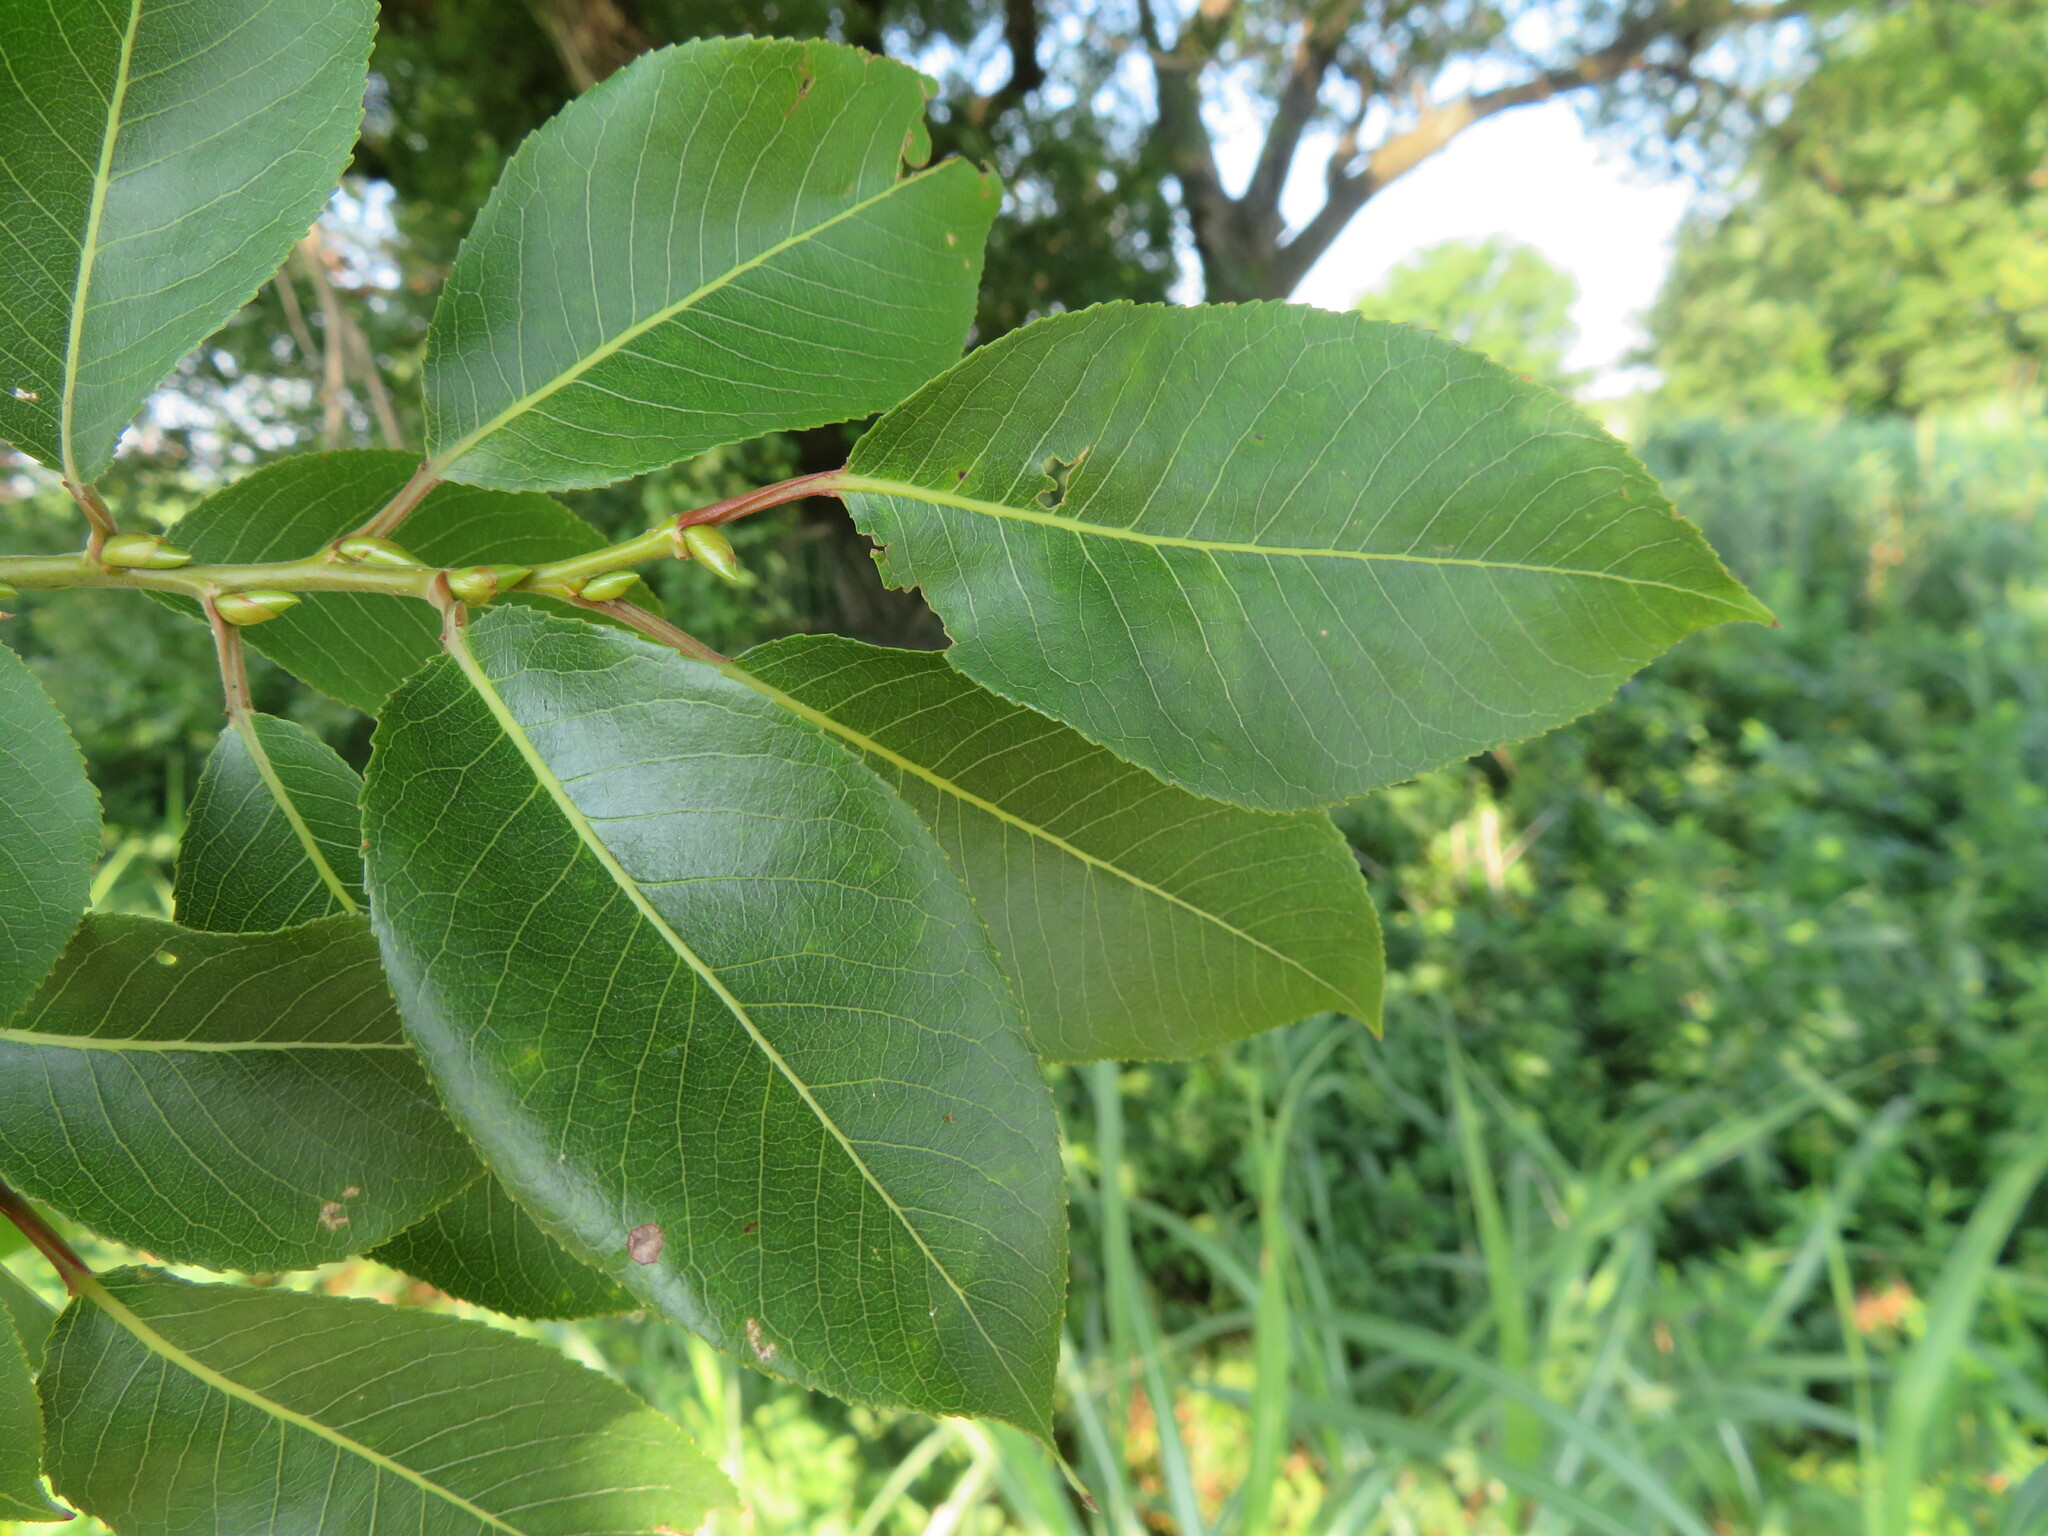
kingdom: Plantae
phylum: Tracheophyta
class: Magnoliopsida
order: Malpighiales
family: Salicaceae
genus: Salix
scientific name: Salix chaenomeloides
